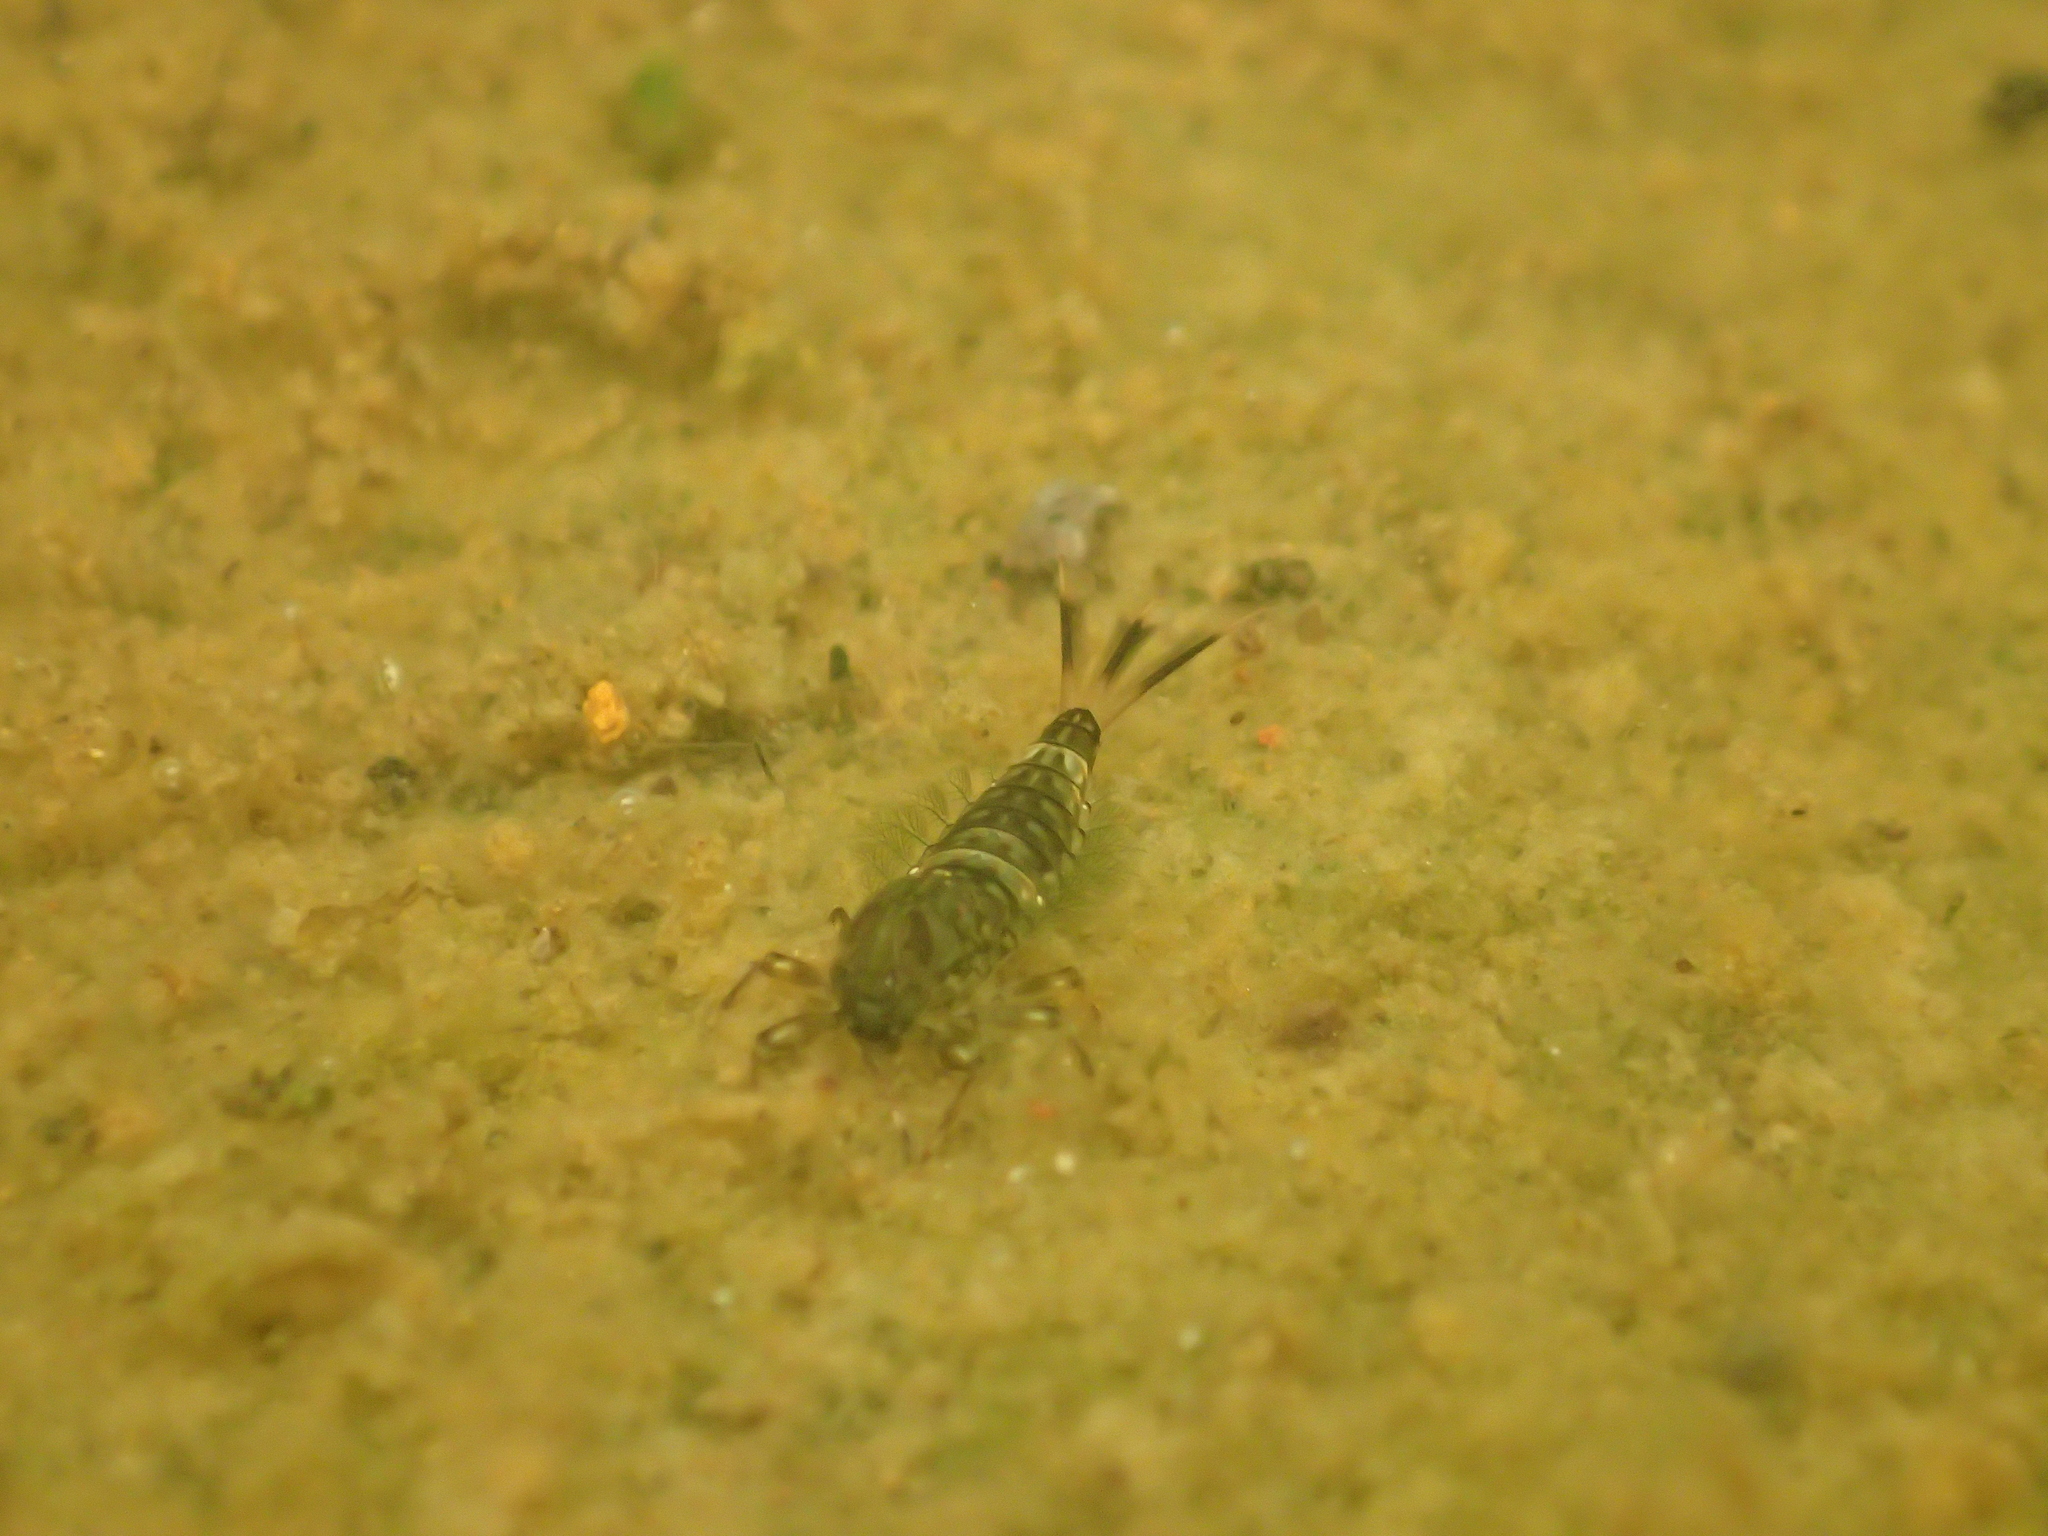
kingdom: Animalia
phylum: Arthropoda
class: Insecta
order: Ephemeroptera
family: Nesameletidae
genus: Nesameletus
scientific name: Nesameletus ornatus
